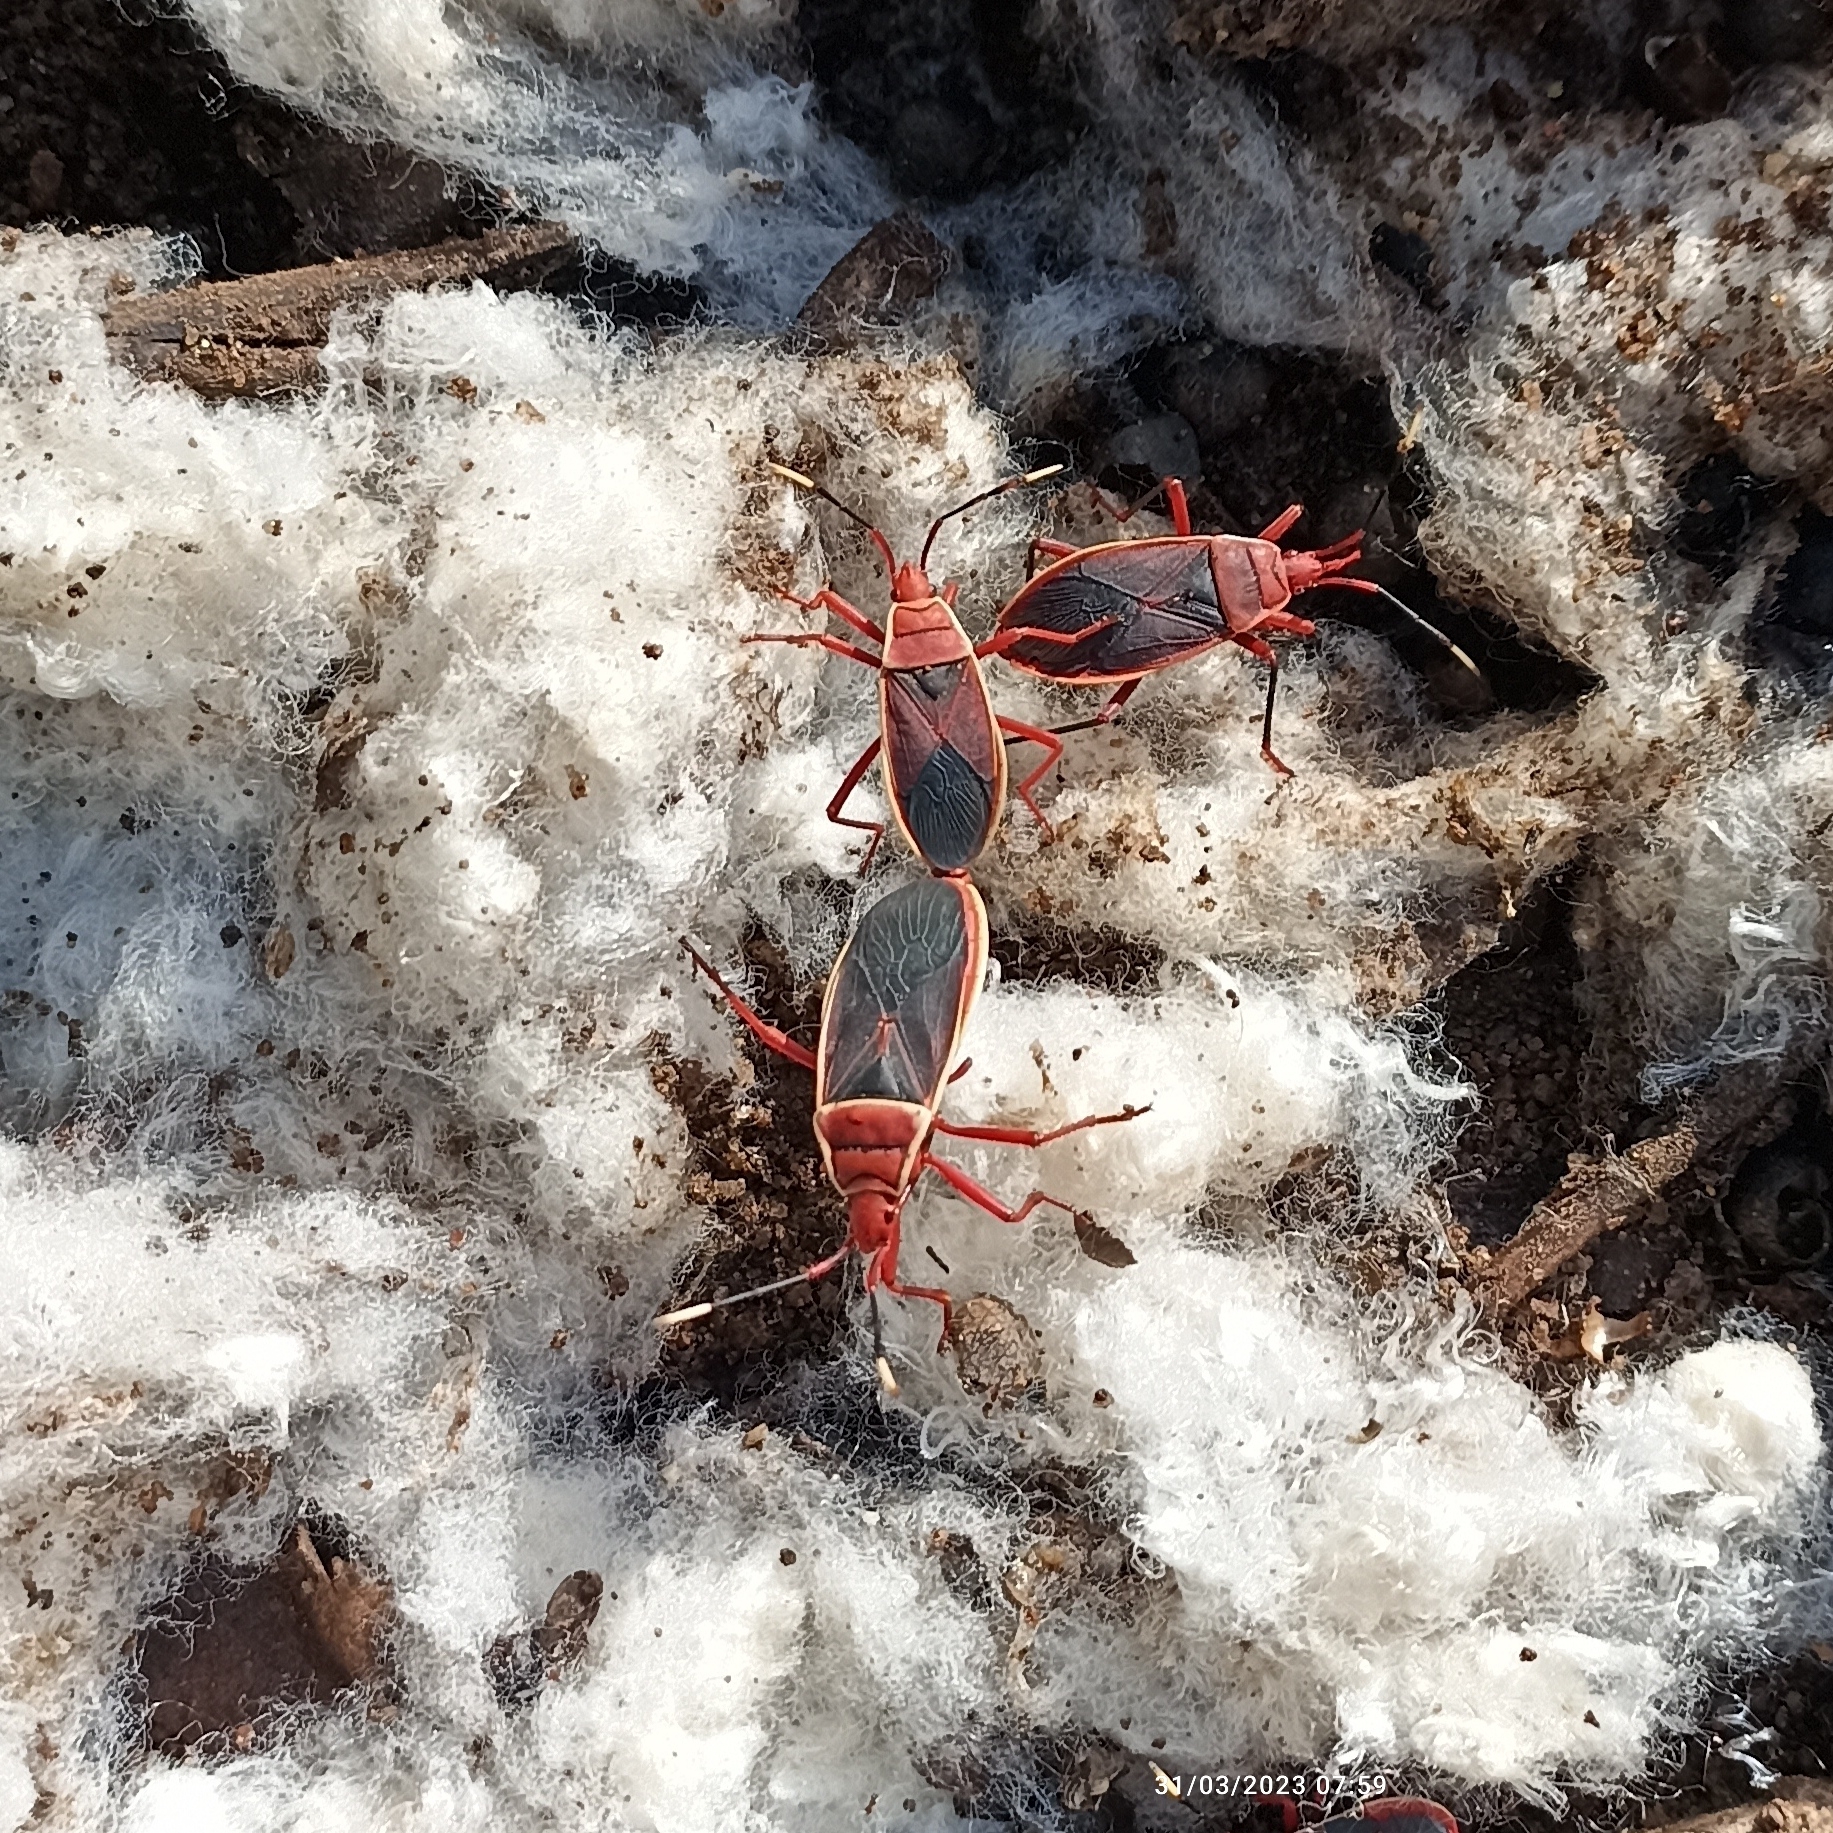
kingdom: Animalia
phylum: Arthropoda
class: Insecta
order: Hemiptera
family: Pyrrhocoridae
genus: Probergrothius
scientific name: Probergrothius varicornis
